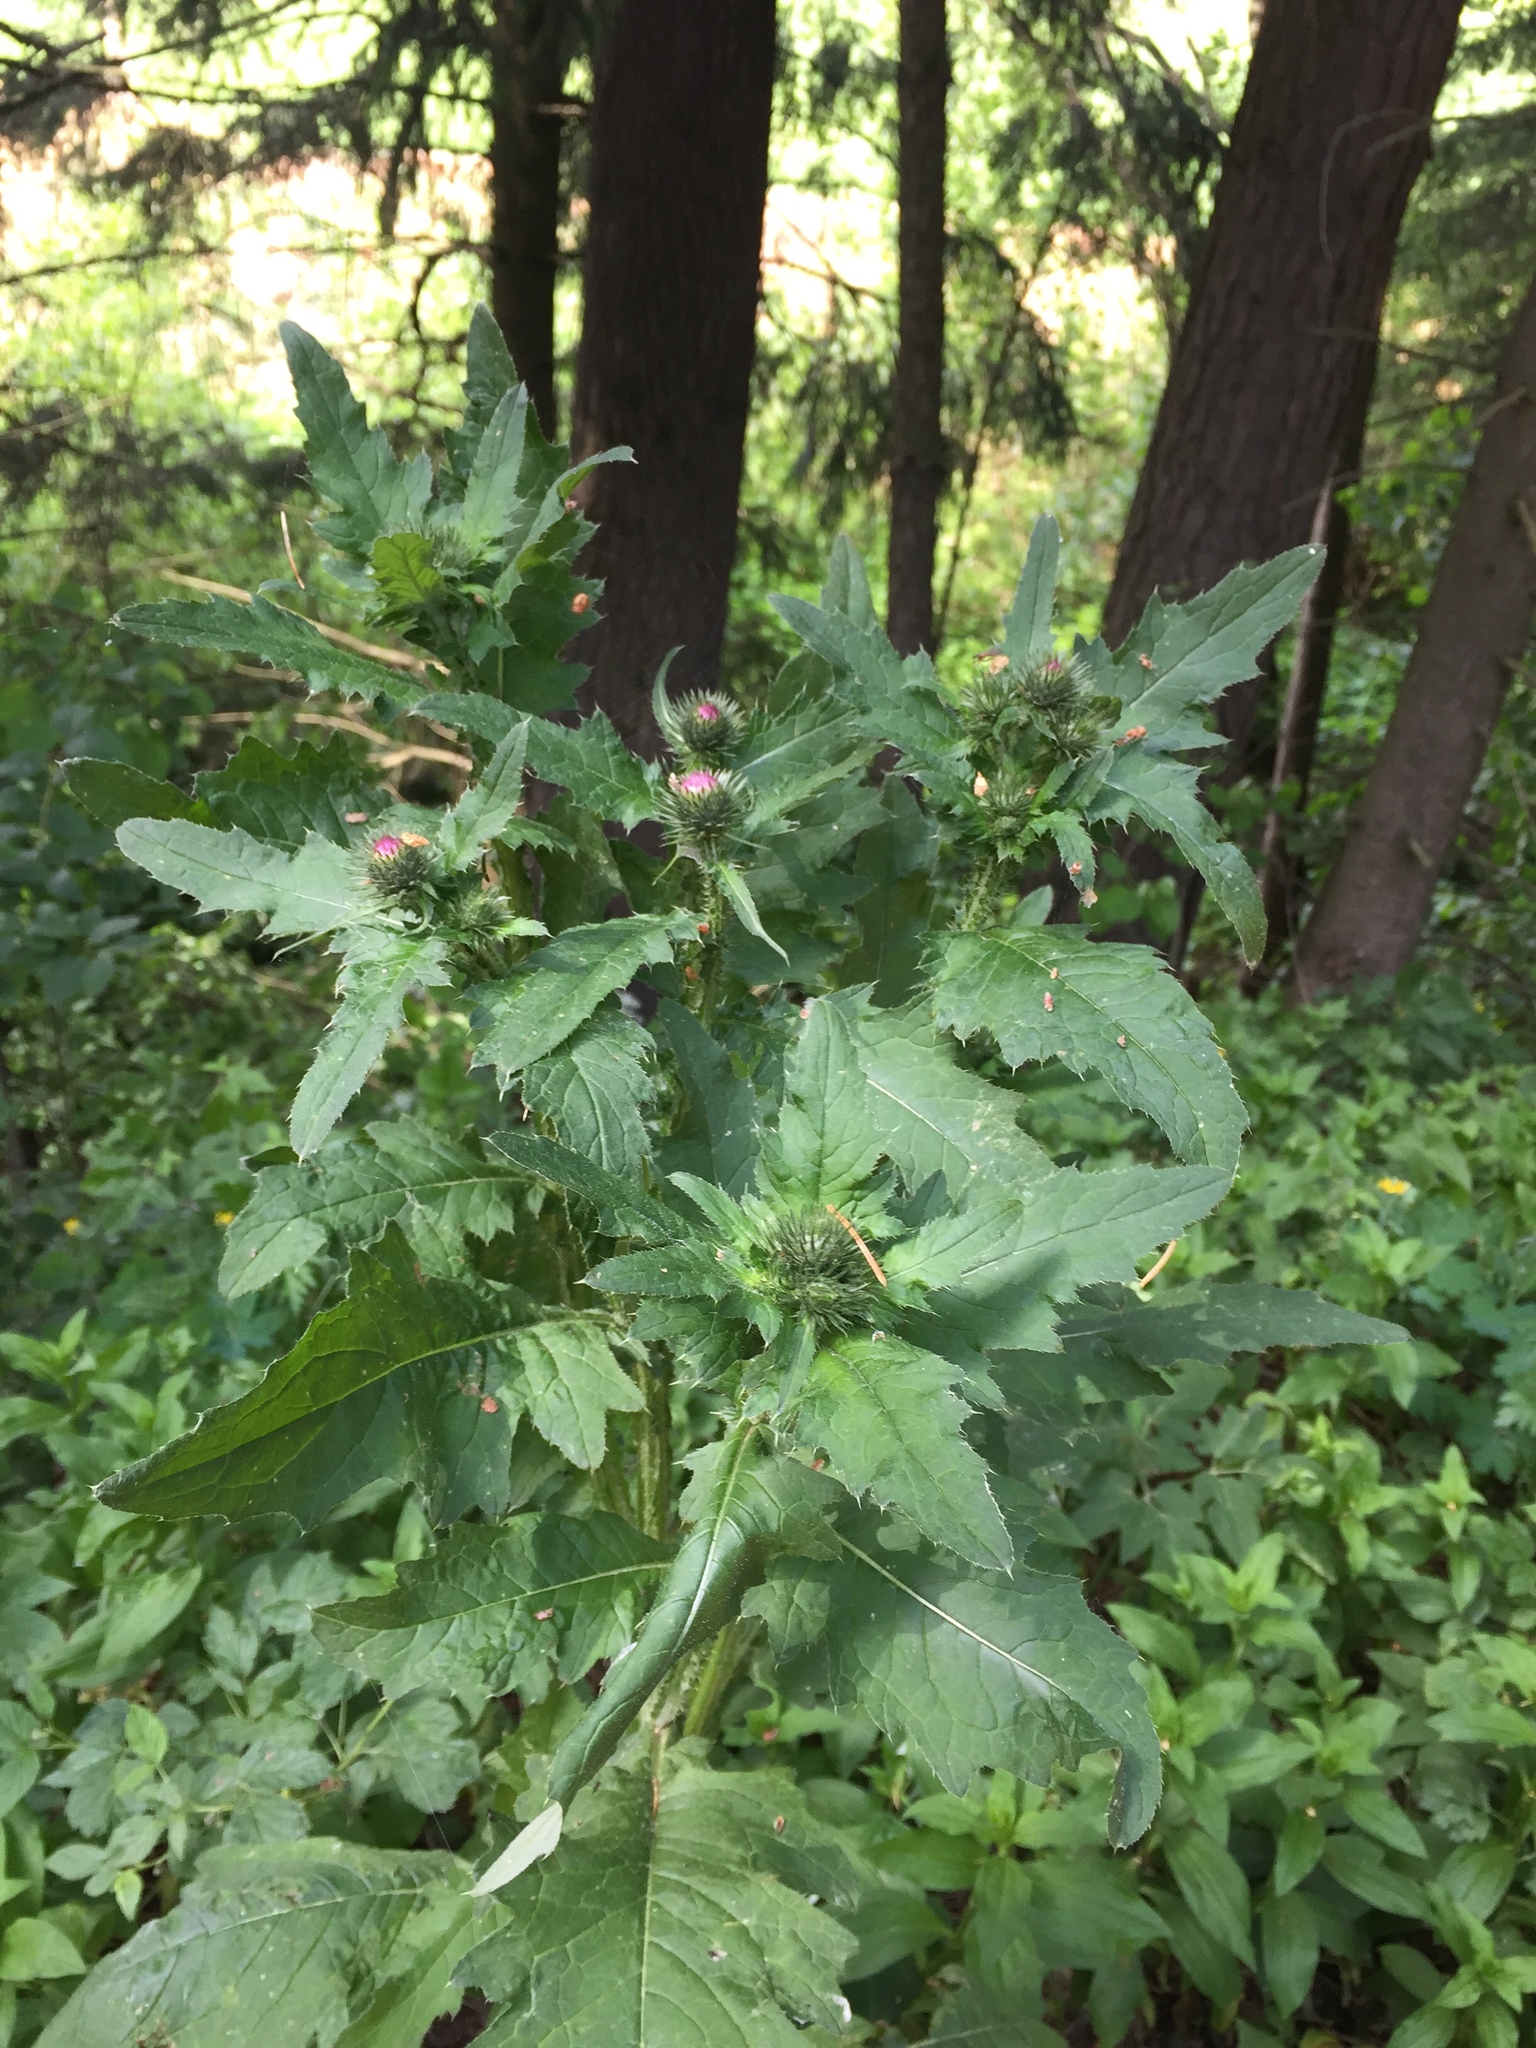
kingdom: Plantae
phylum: Tracheophyta
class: Magnoliopsida
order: Asterales
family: Asteraceae
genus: Carduus
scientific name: Carduus crispus
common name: Welted thistle
